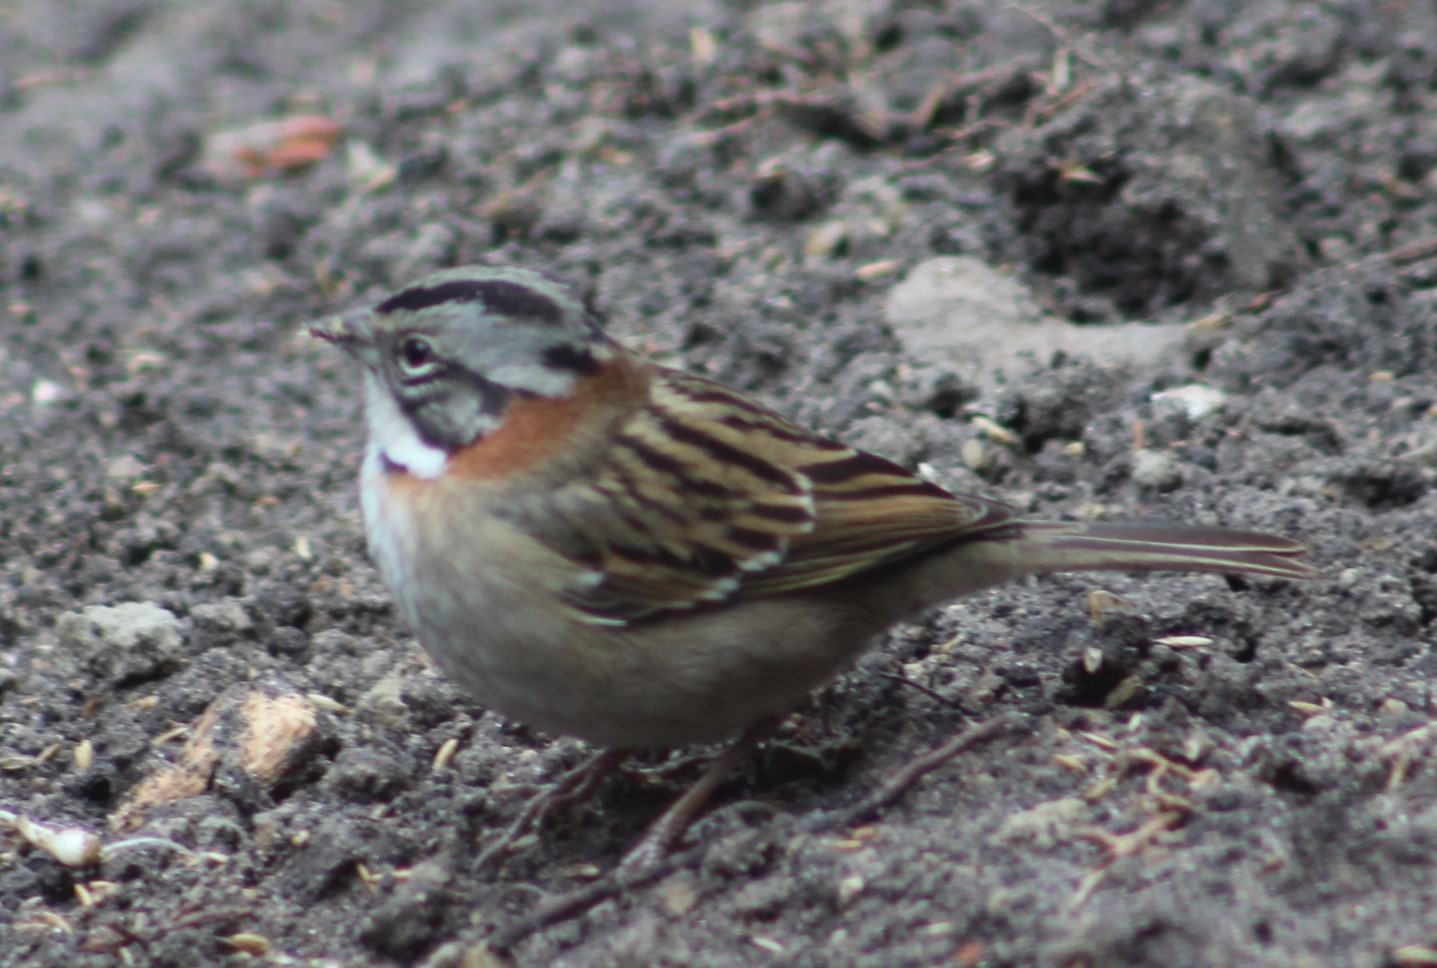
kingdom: Animalia
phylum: Chordata
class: Aves
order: Passeriformes
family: Passerellidae
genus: Zonotrichia
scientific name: Zonotrichia capensis
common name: Rufous-collared sparrow
